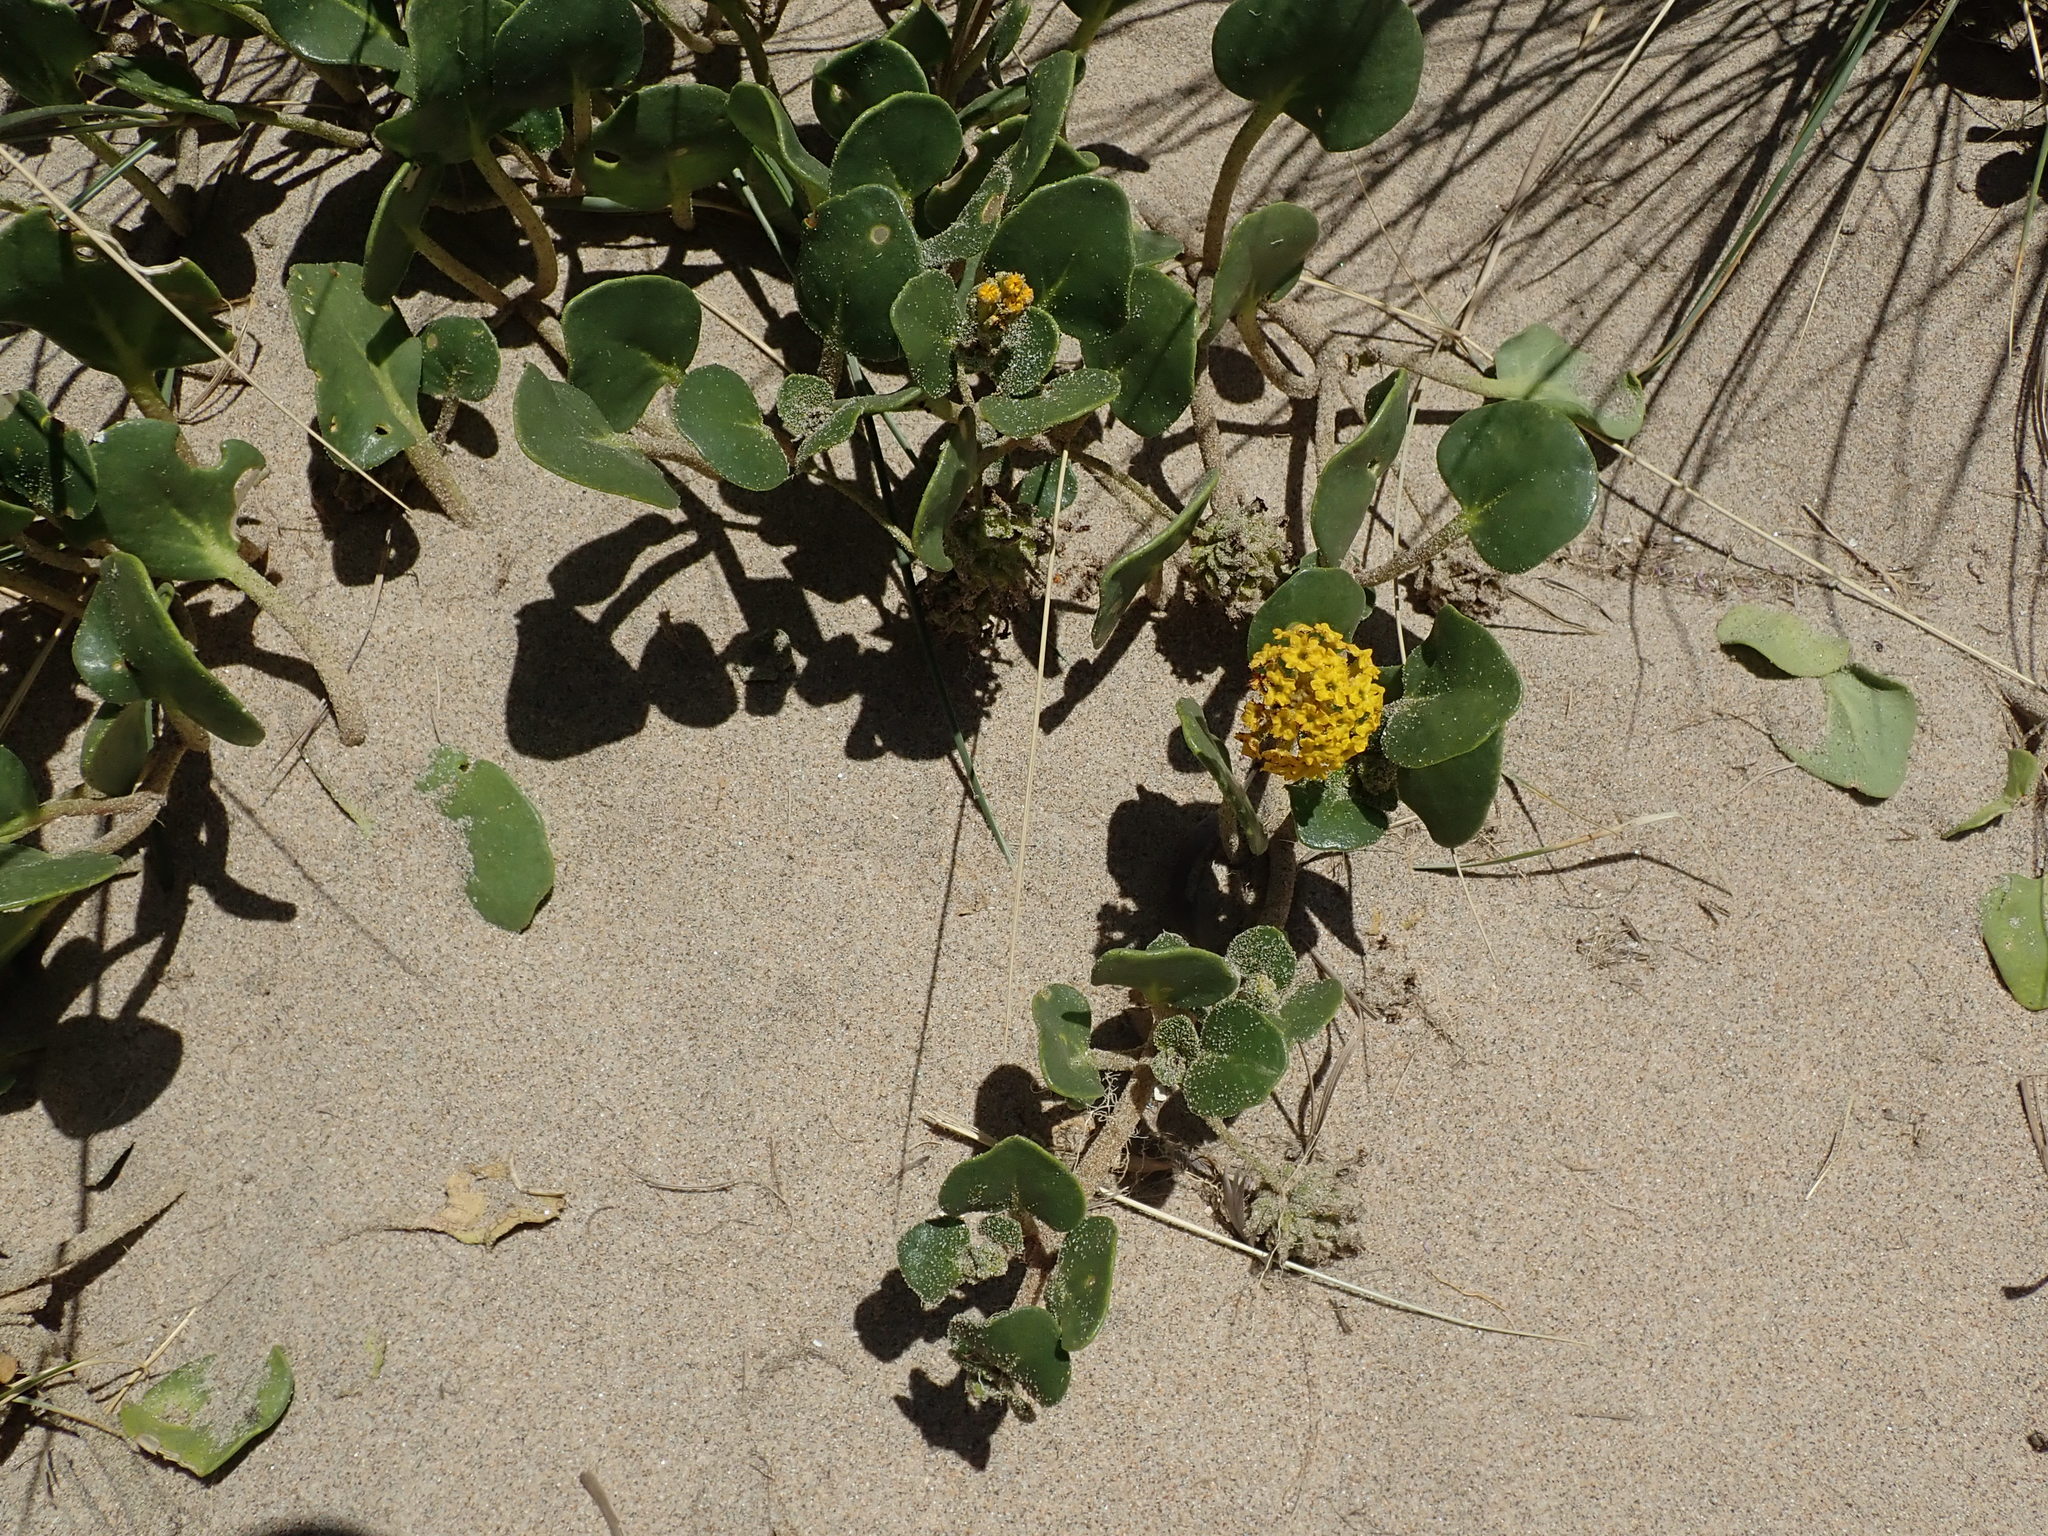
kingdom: Plantae
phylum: Tracheophyta
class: Magnoliopsida
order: Caryophyllales
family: Nyctaginaceae
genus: Abronia
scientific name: Abronia latifolia
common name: Yellow sand-verbena
